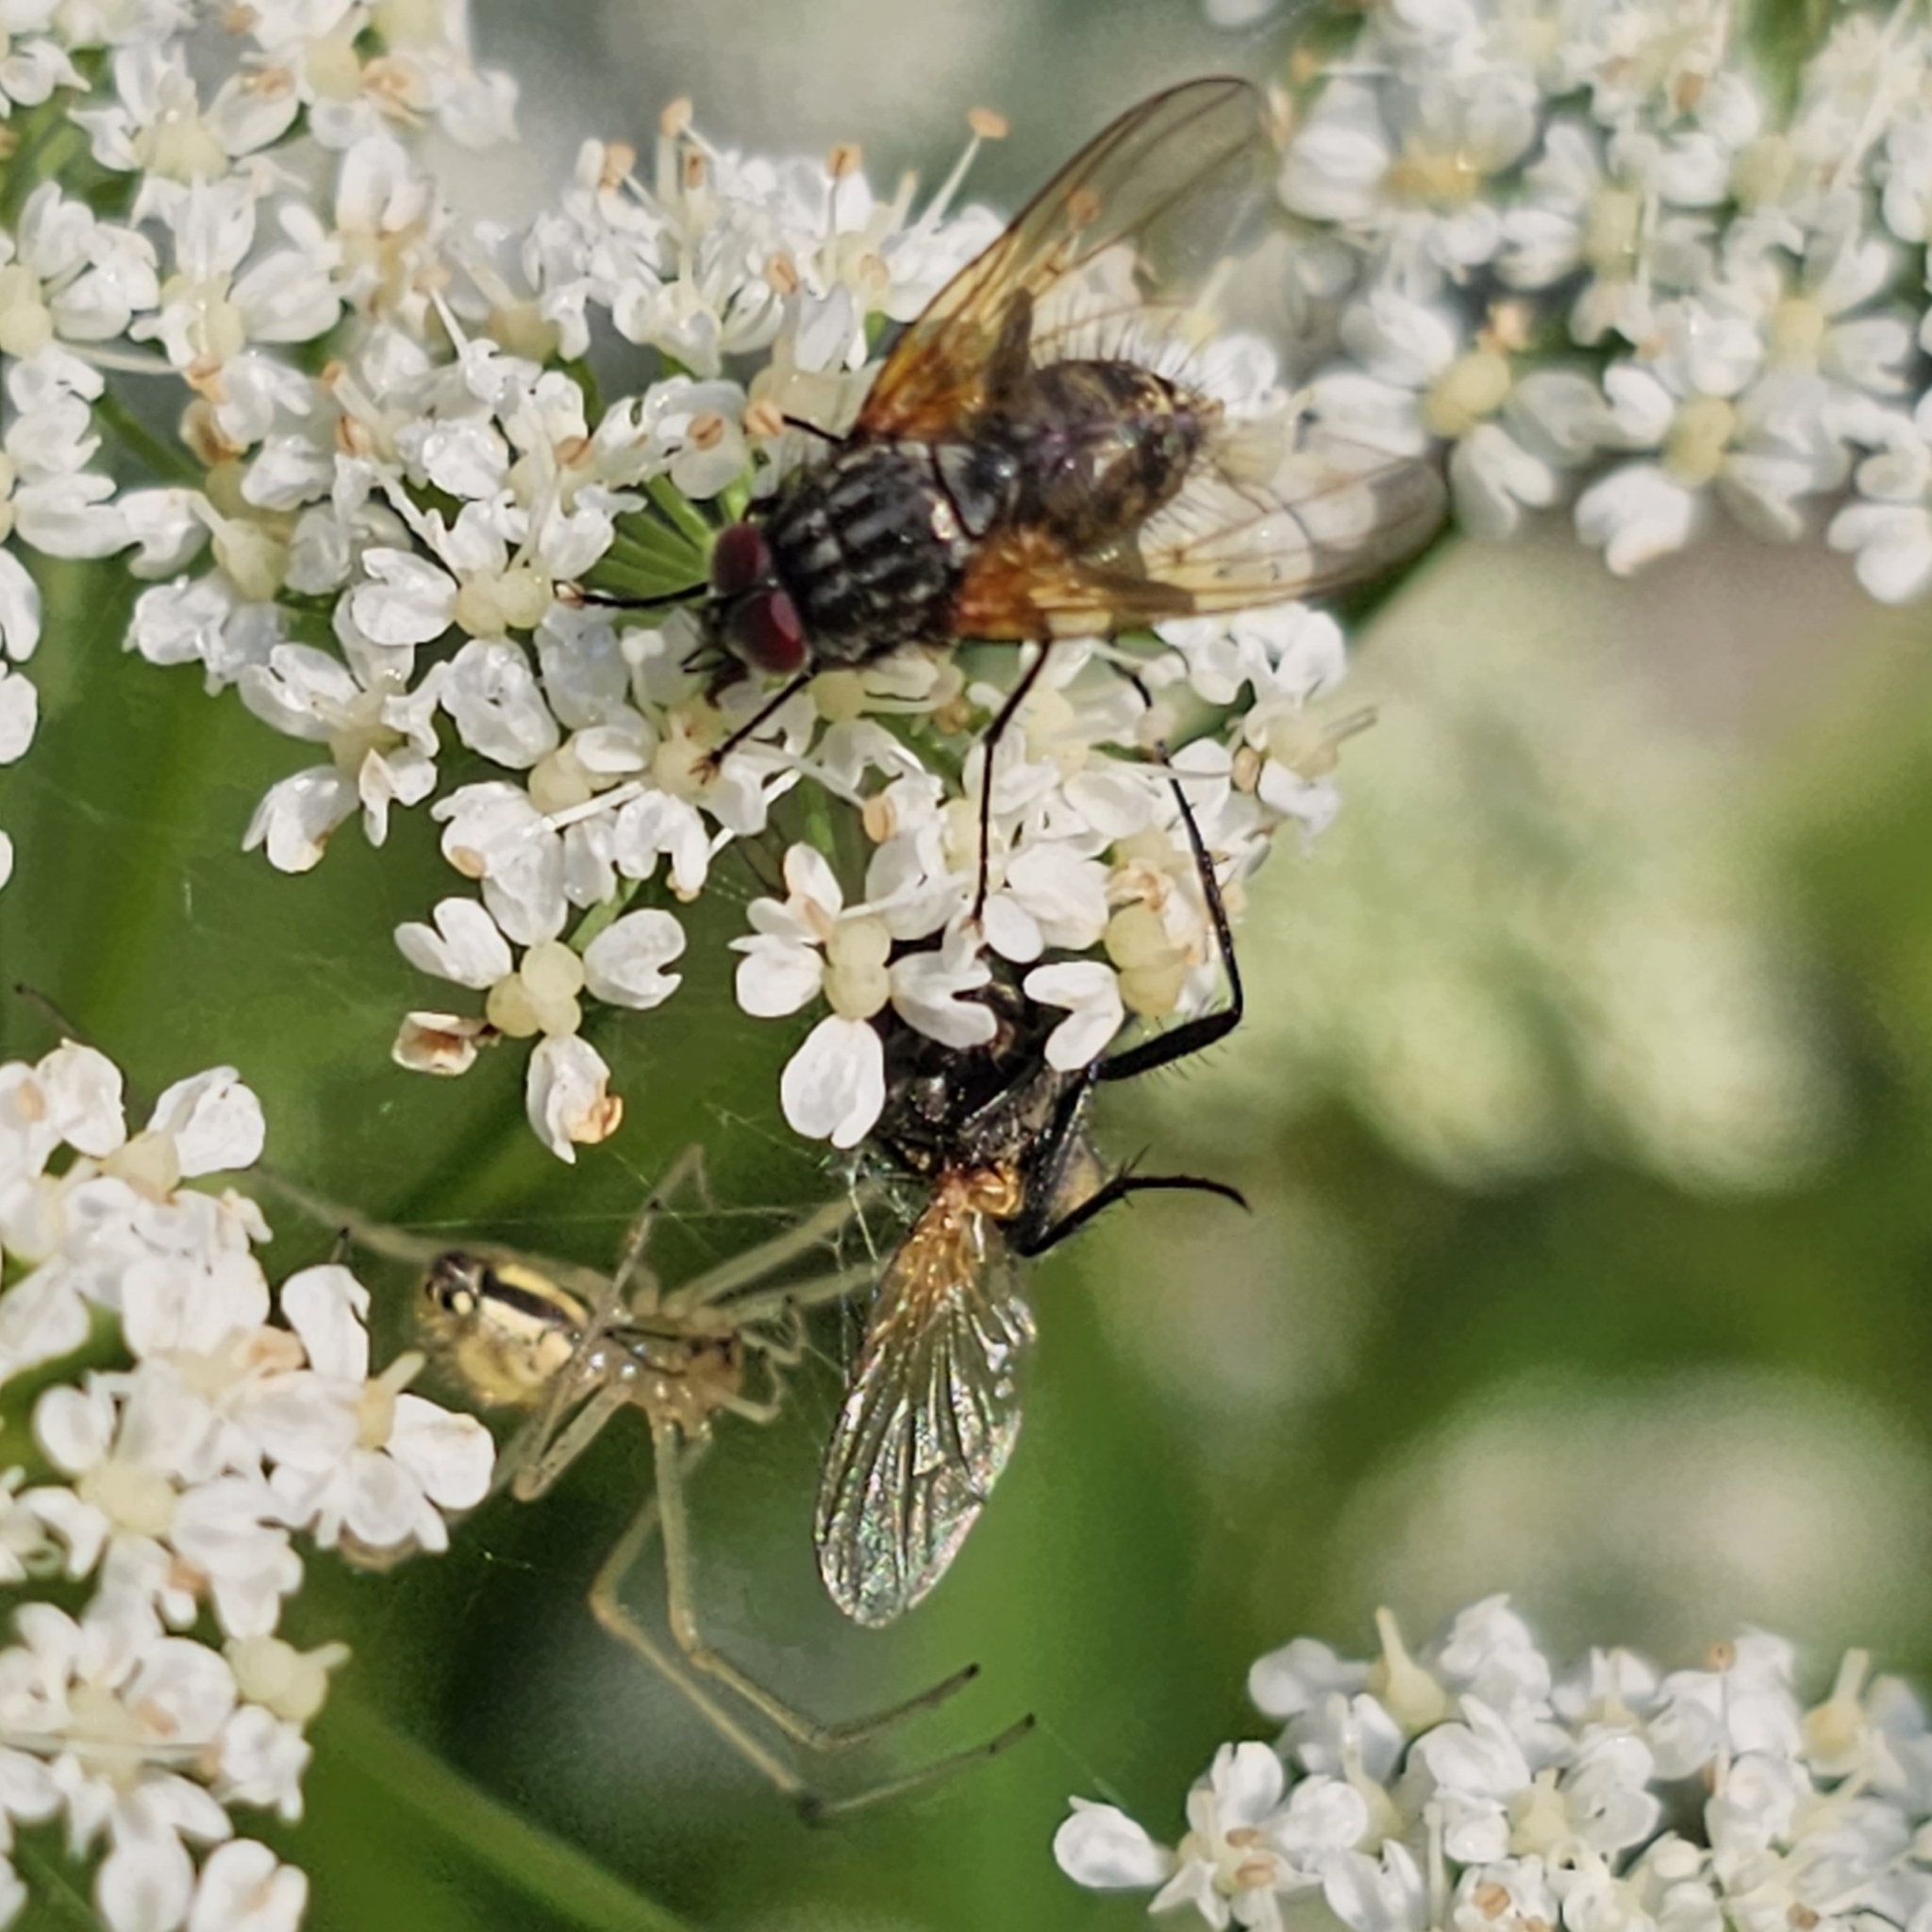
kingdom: Animalia
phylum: Arthropoda
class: Arachnida
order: Araneae
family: Theridiidae
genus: Enoplognatha
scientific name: Enoplognatha ovata
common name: Common candy-striped spider
